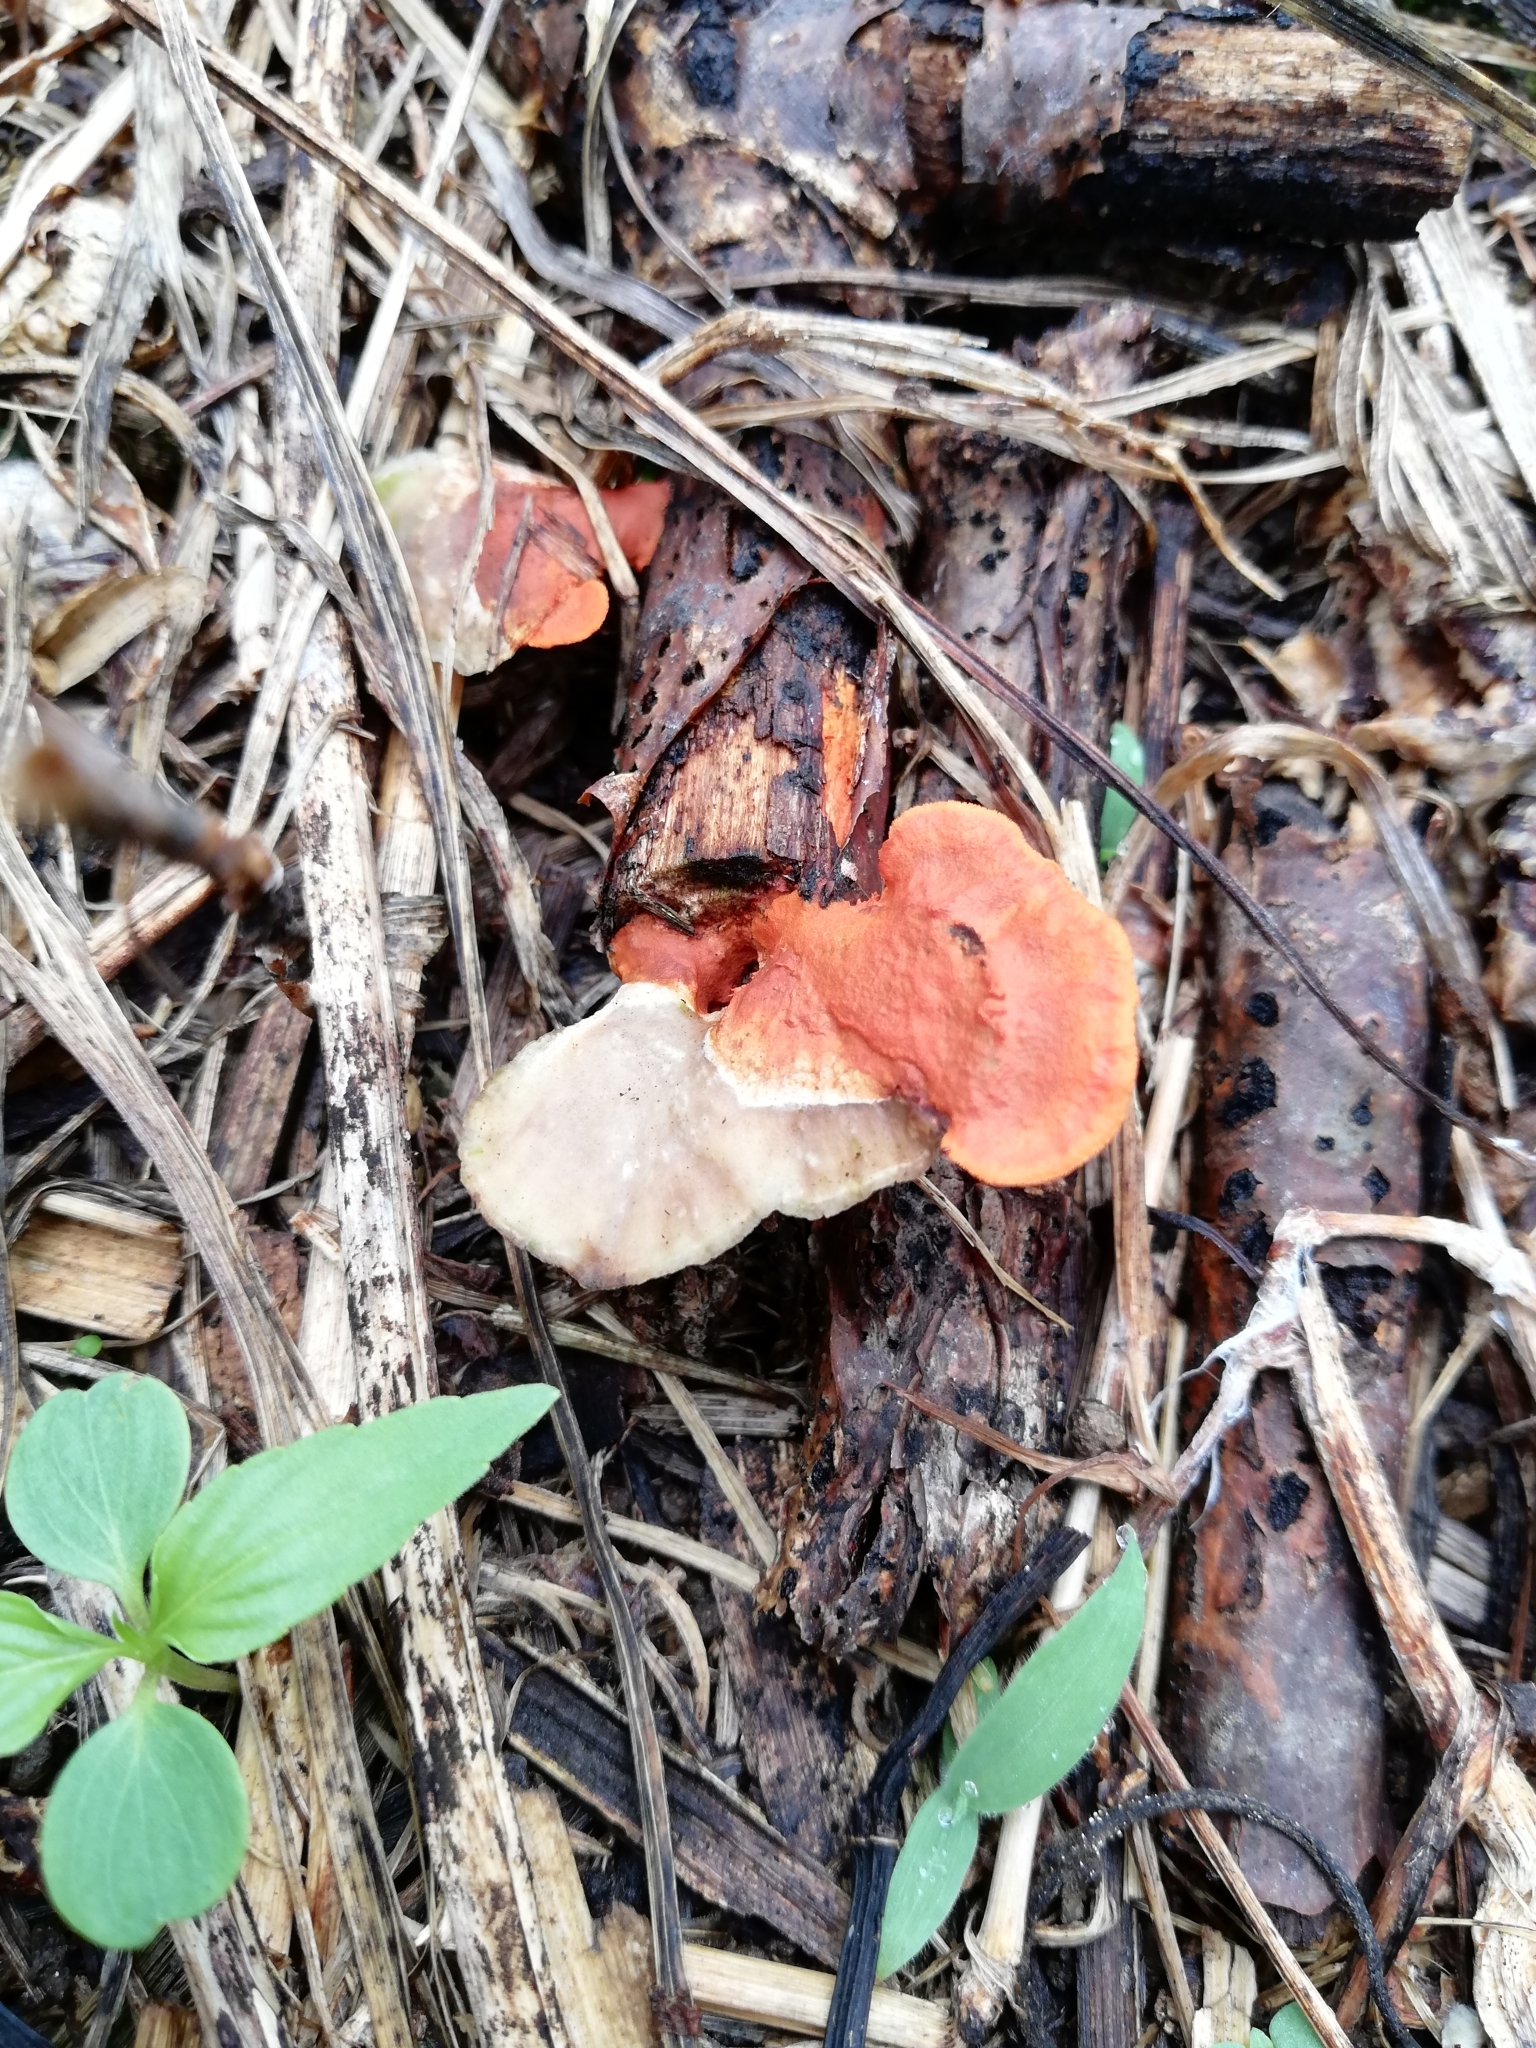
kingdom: Fungi
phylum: Basidiomycota
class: Agaricomycetes
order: Polyporales
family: Polyporaceae
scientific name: Polyporaceae
